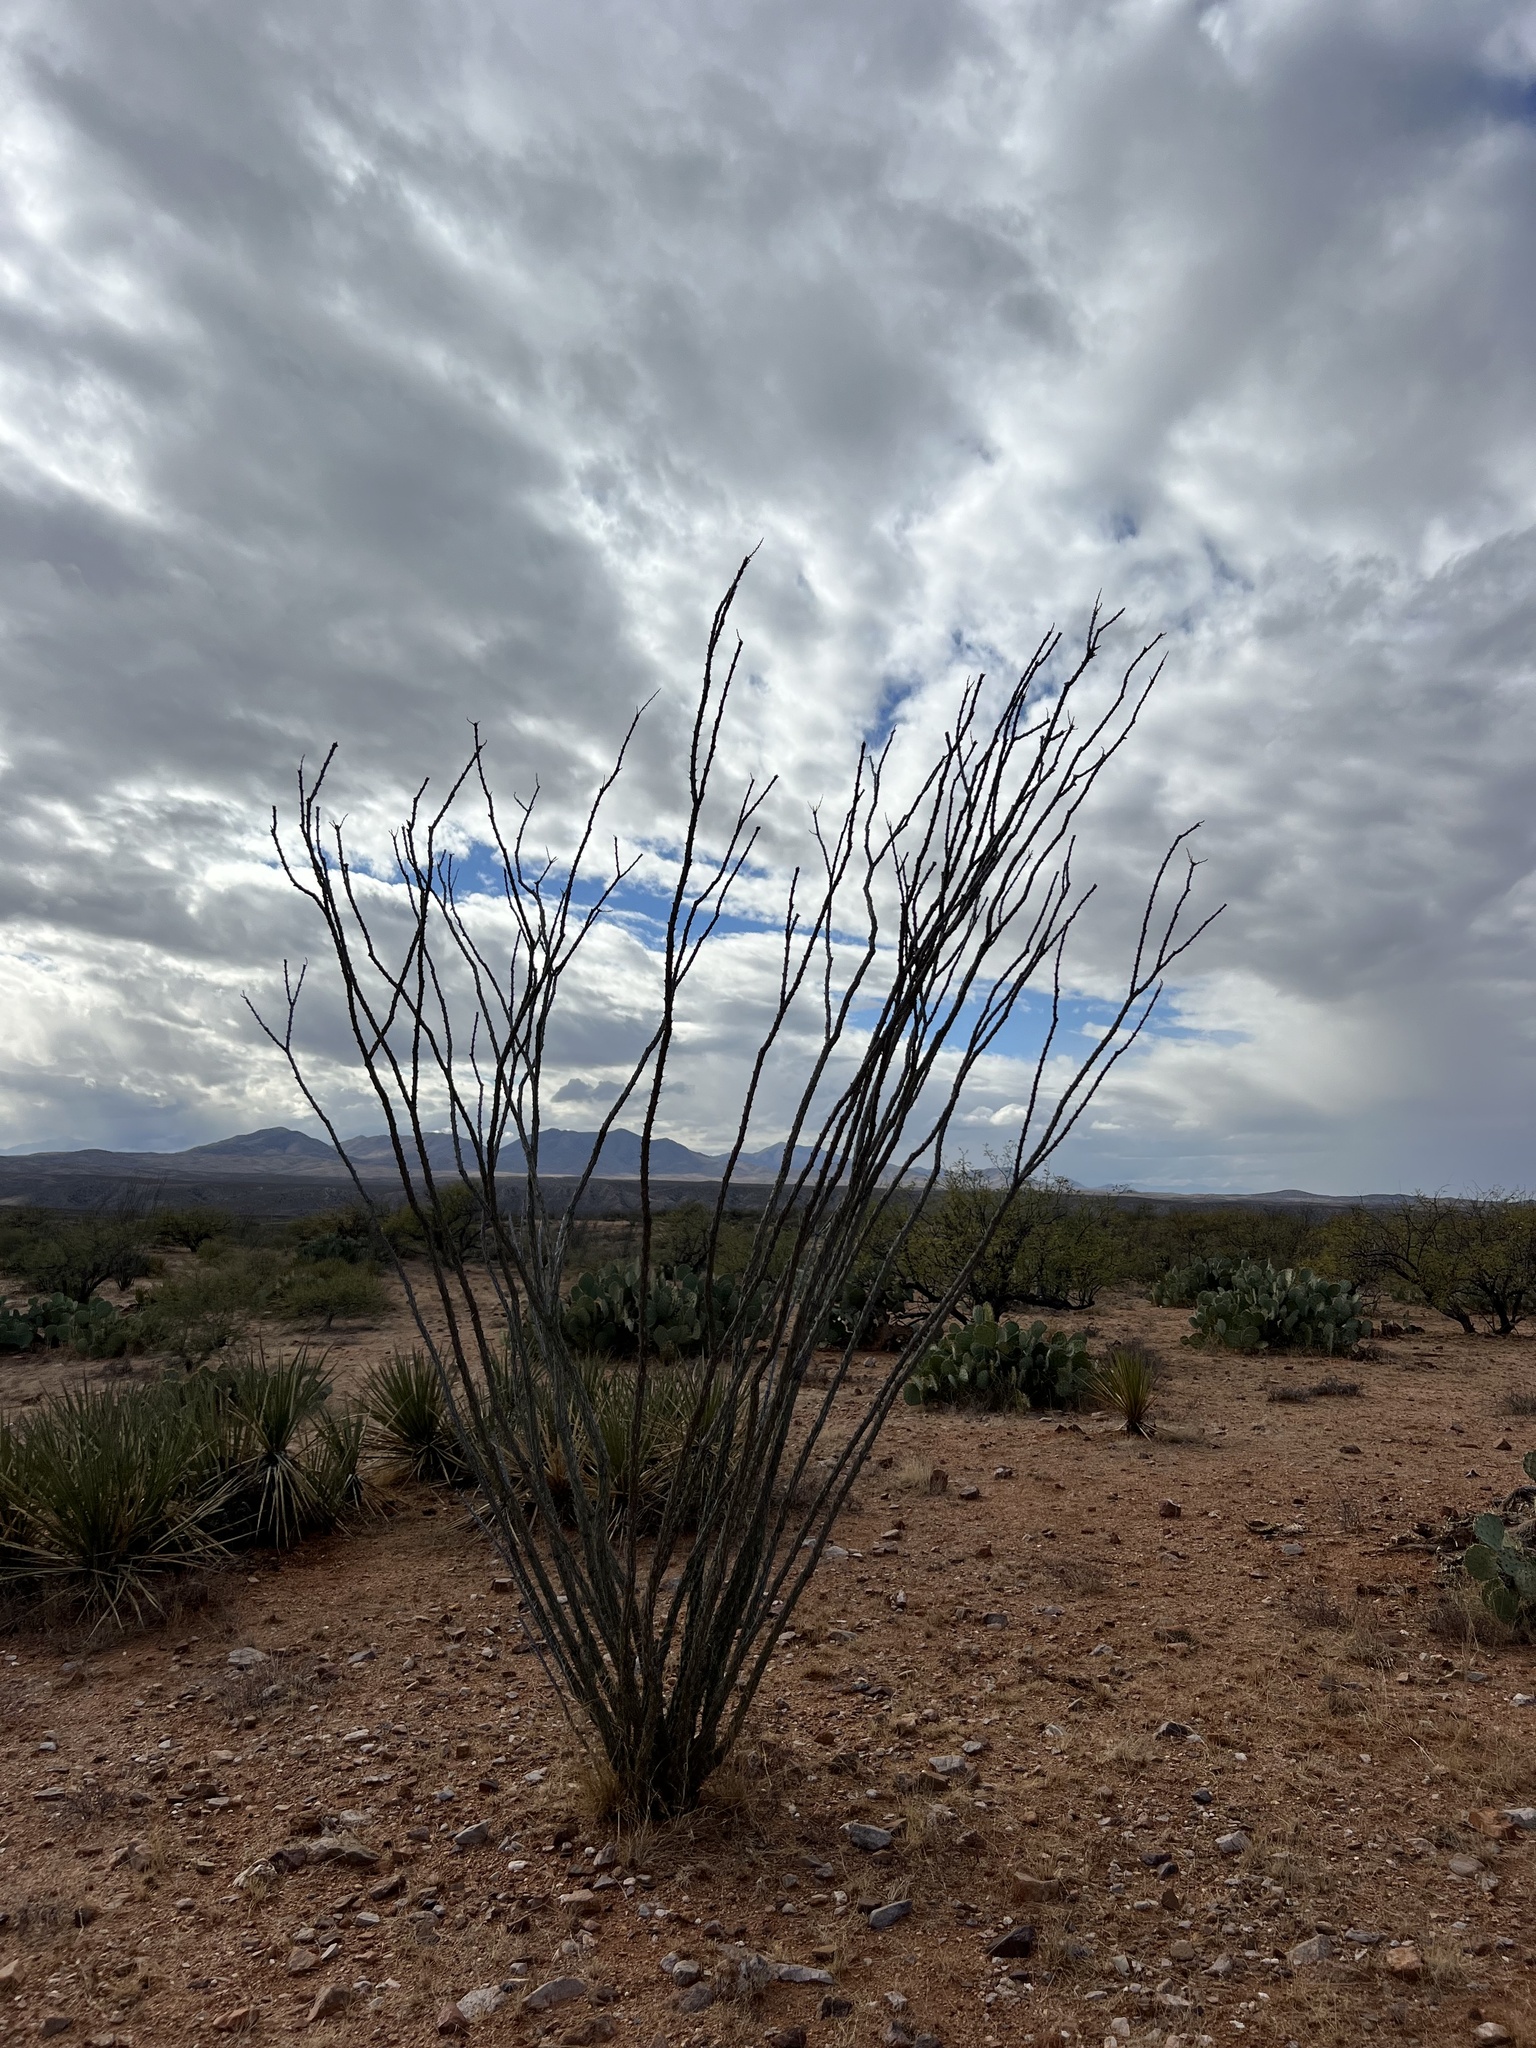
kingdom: Plantae
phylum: Tracheophyta
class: Magnoliopsida
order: Ericales
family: Fouquieriaceae
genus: Fouquieria
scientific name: Fouquieria splendens
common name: Vine-cactus
